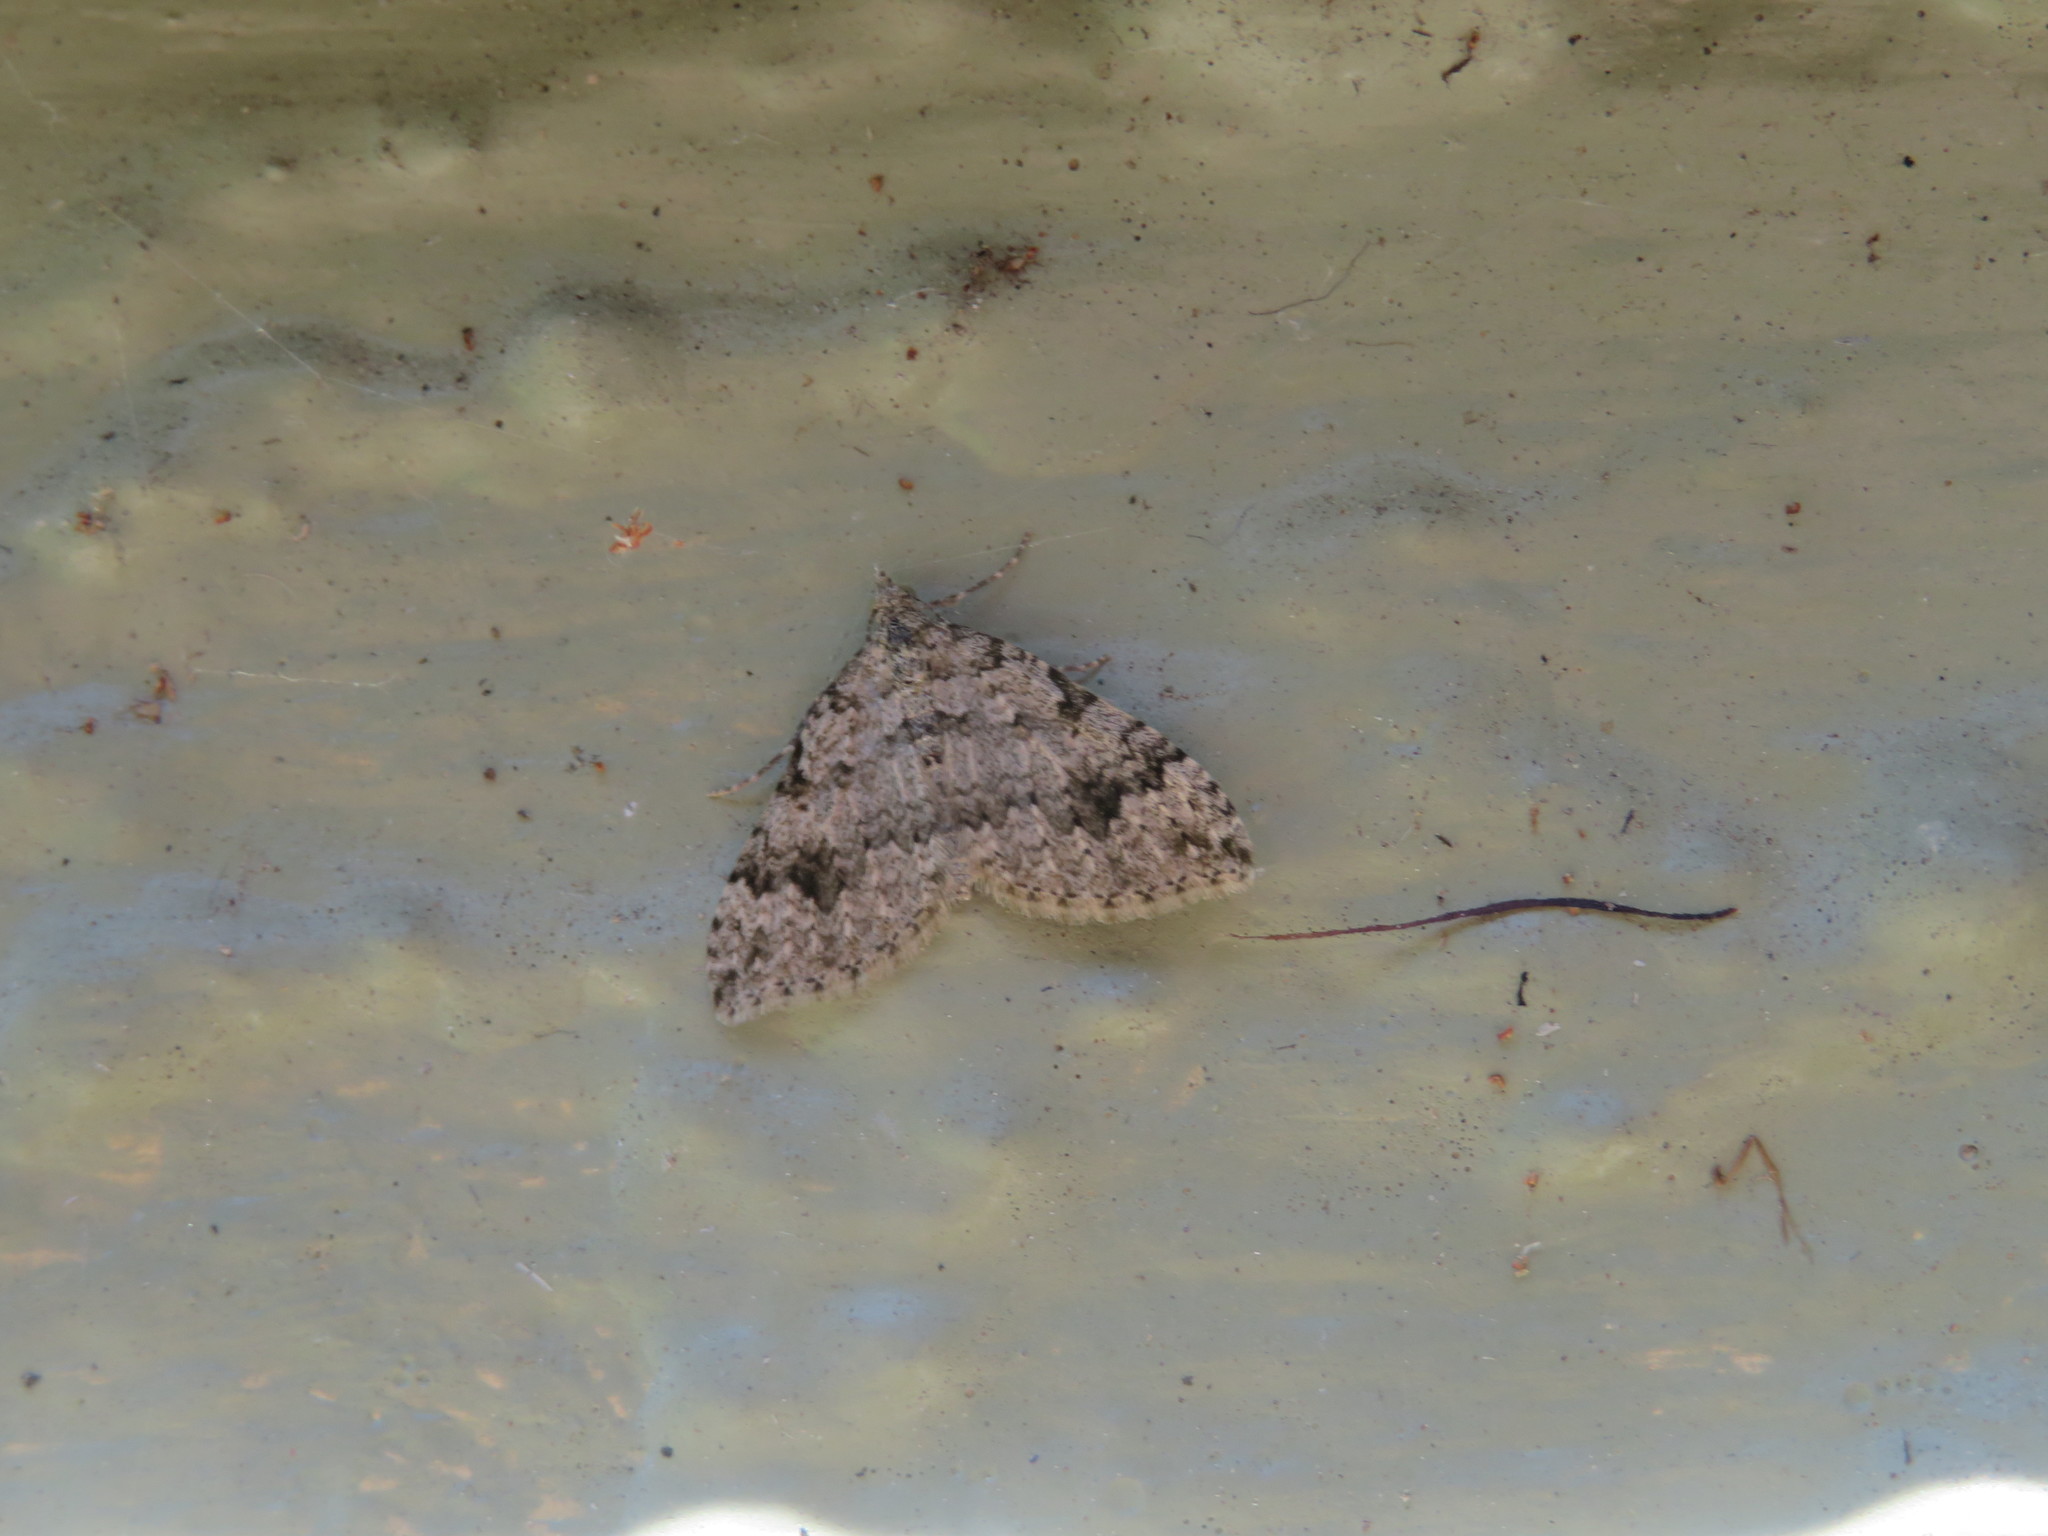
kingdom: Animalia
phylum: Arthropoda
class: Insecta
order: Lepidoptera
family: Geometridae
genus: Helastia
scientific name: Helastia cinerearia
